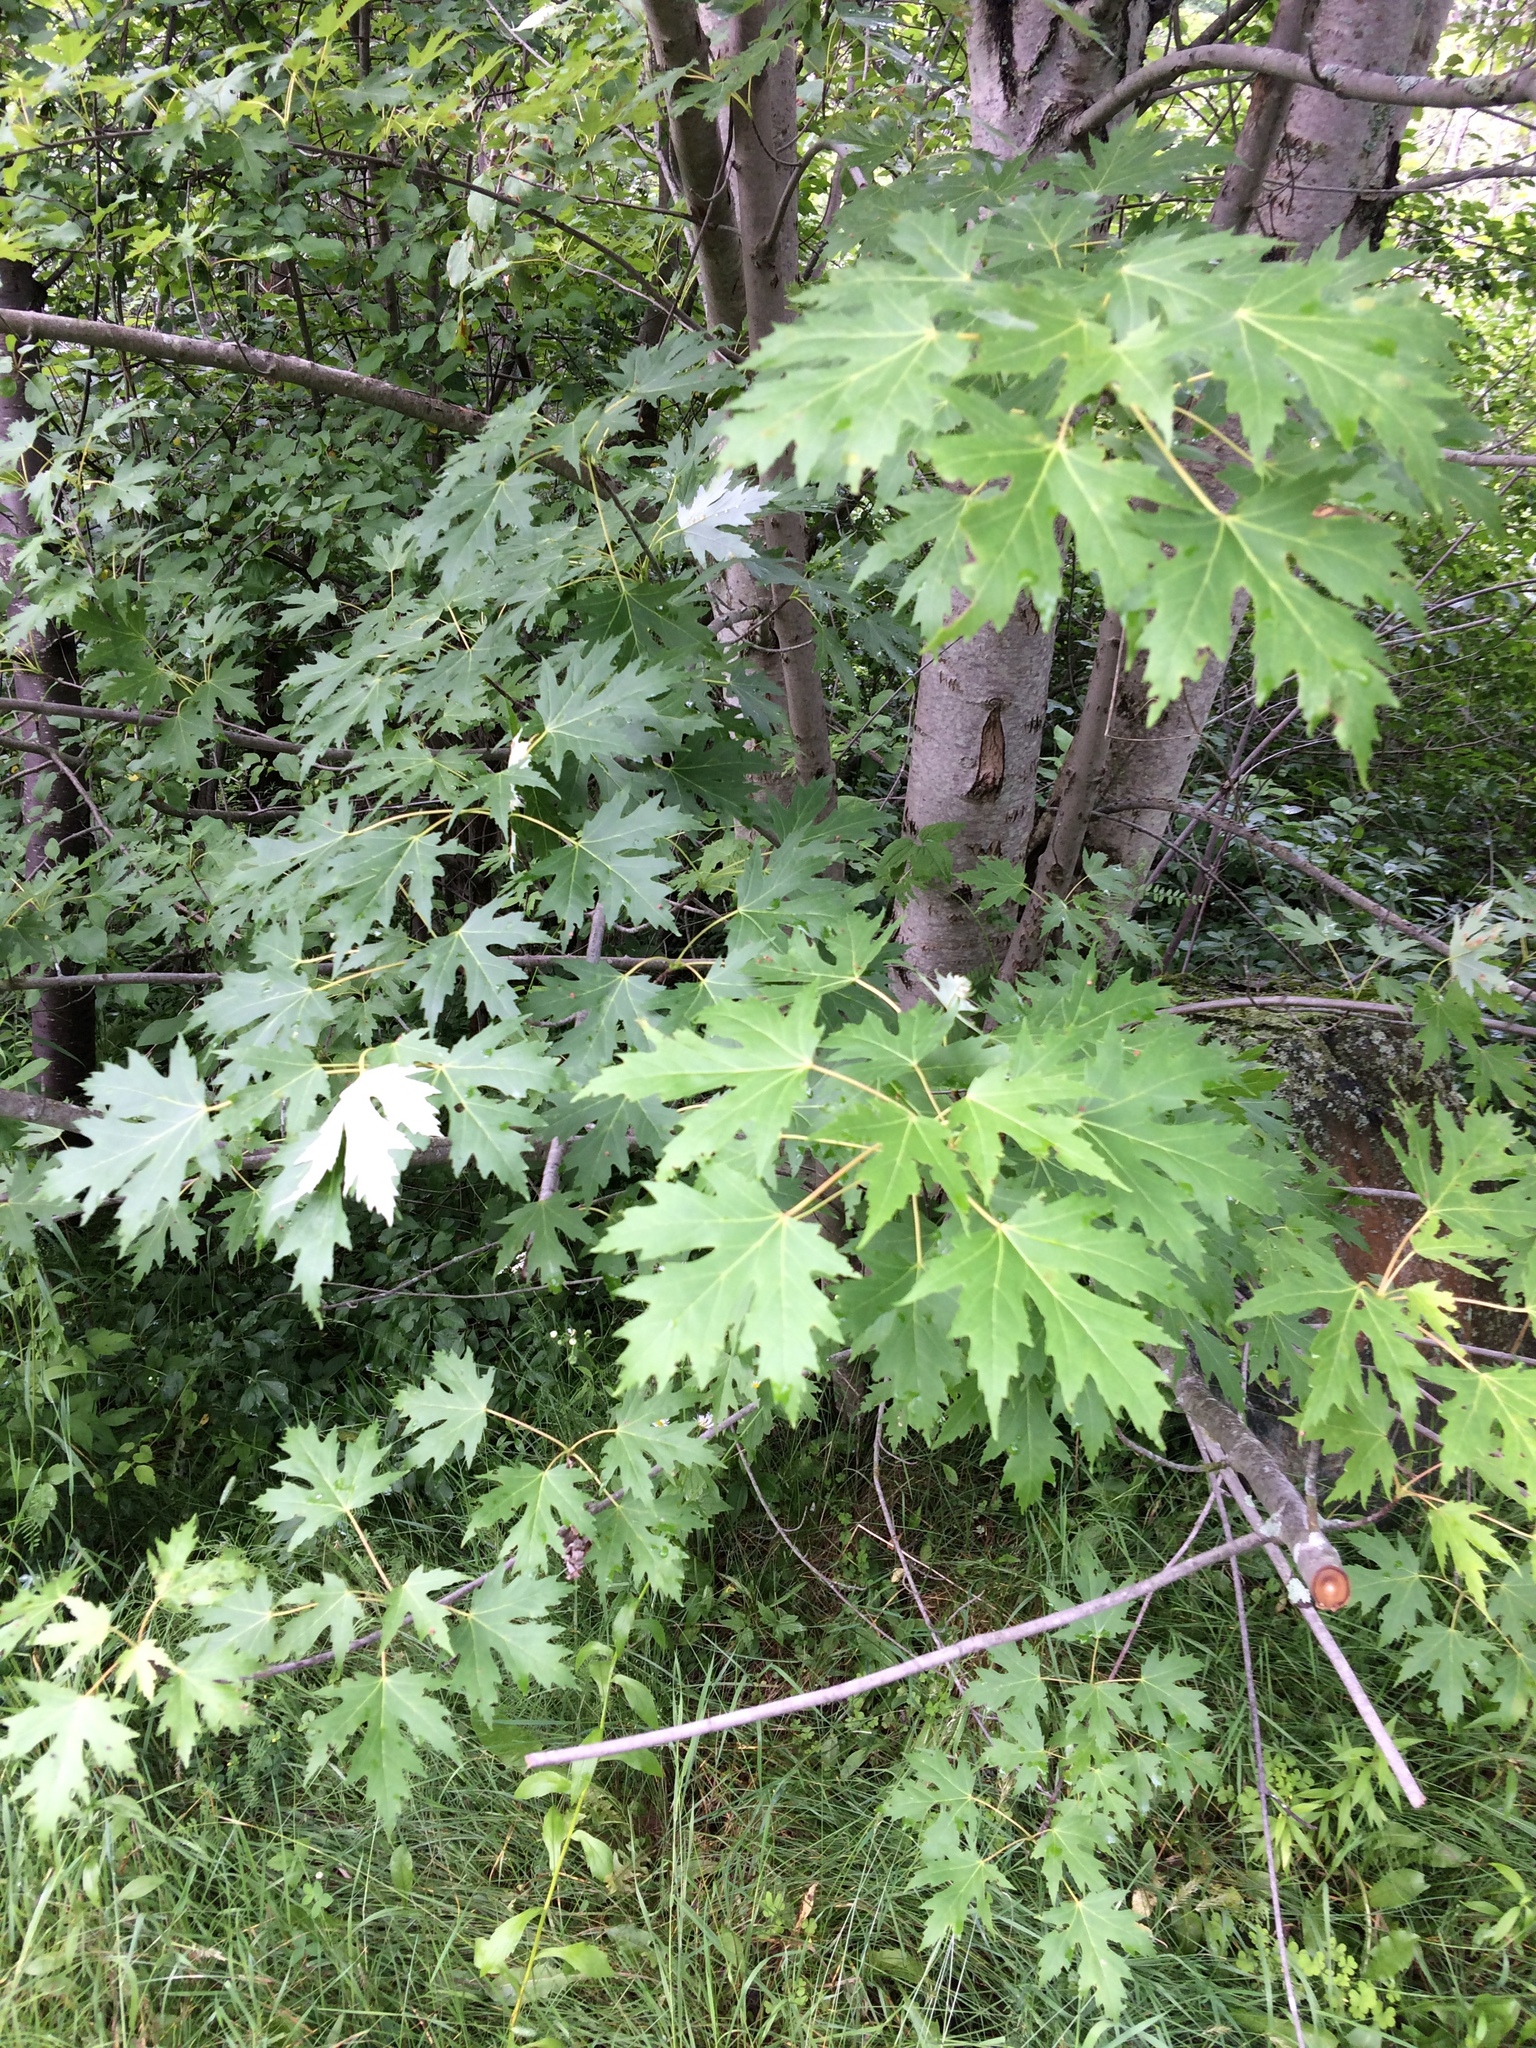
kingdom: Plantae
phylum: Tracheophyta
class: Magnoliopsida
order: Sapindales
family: Sapindaceae
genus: Acer
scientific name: Acer saccharinum
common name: Silver maple
